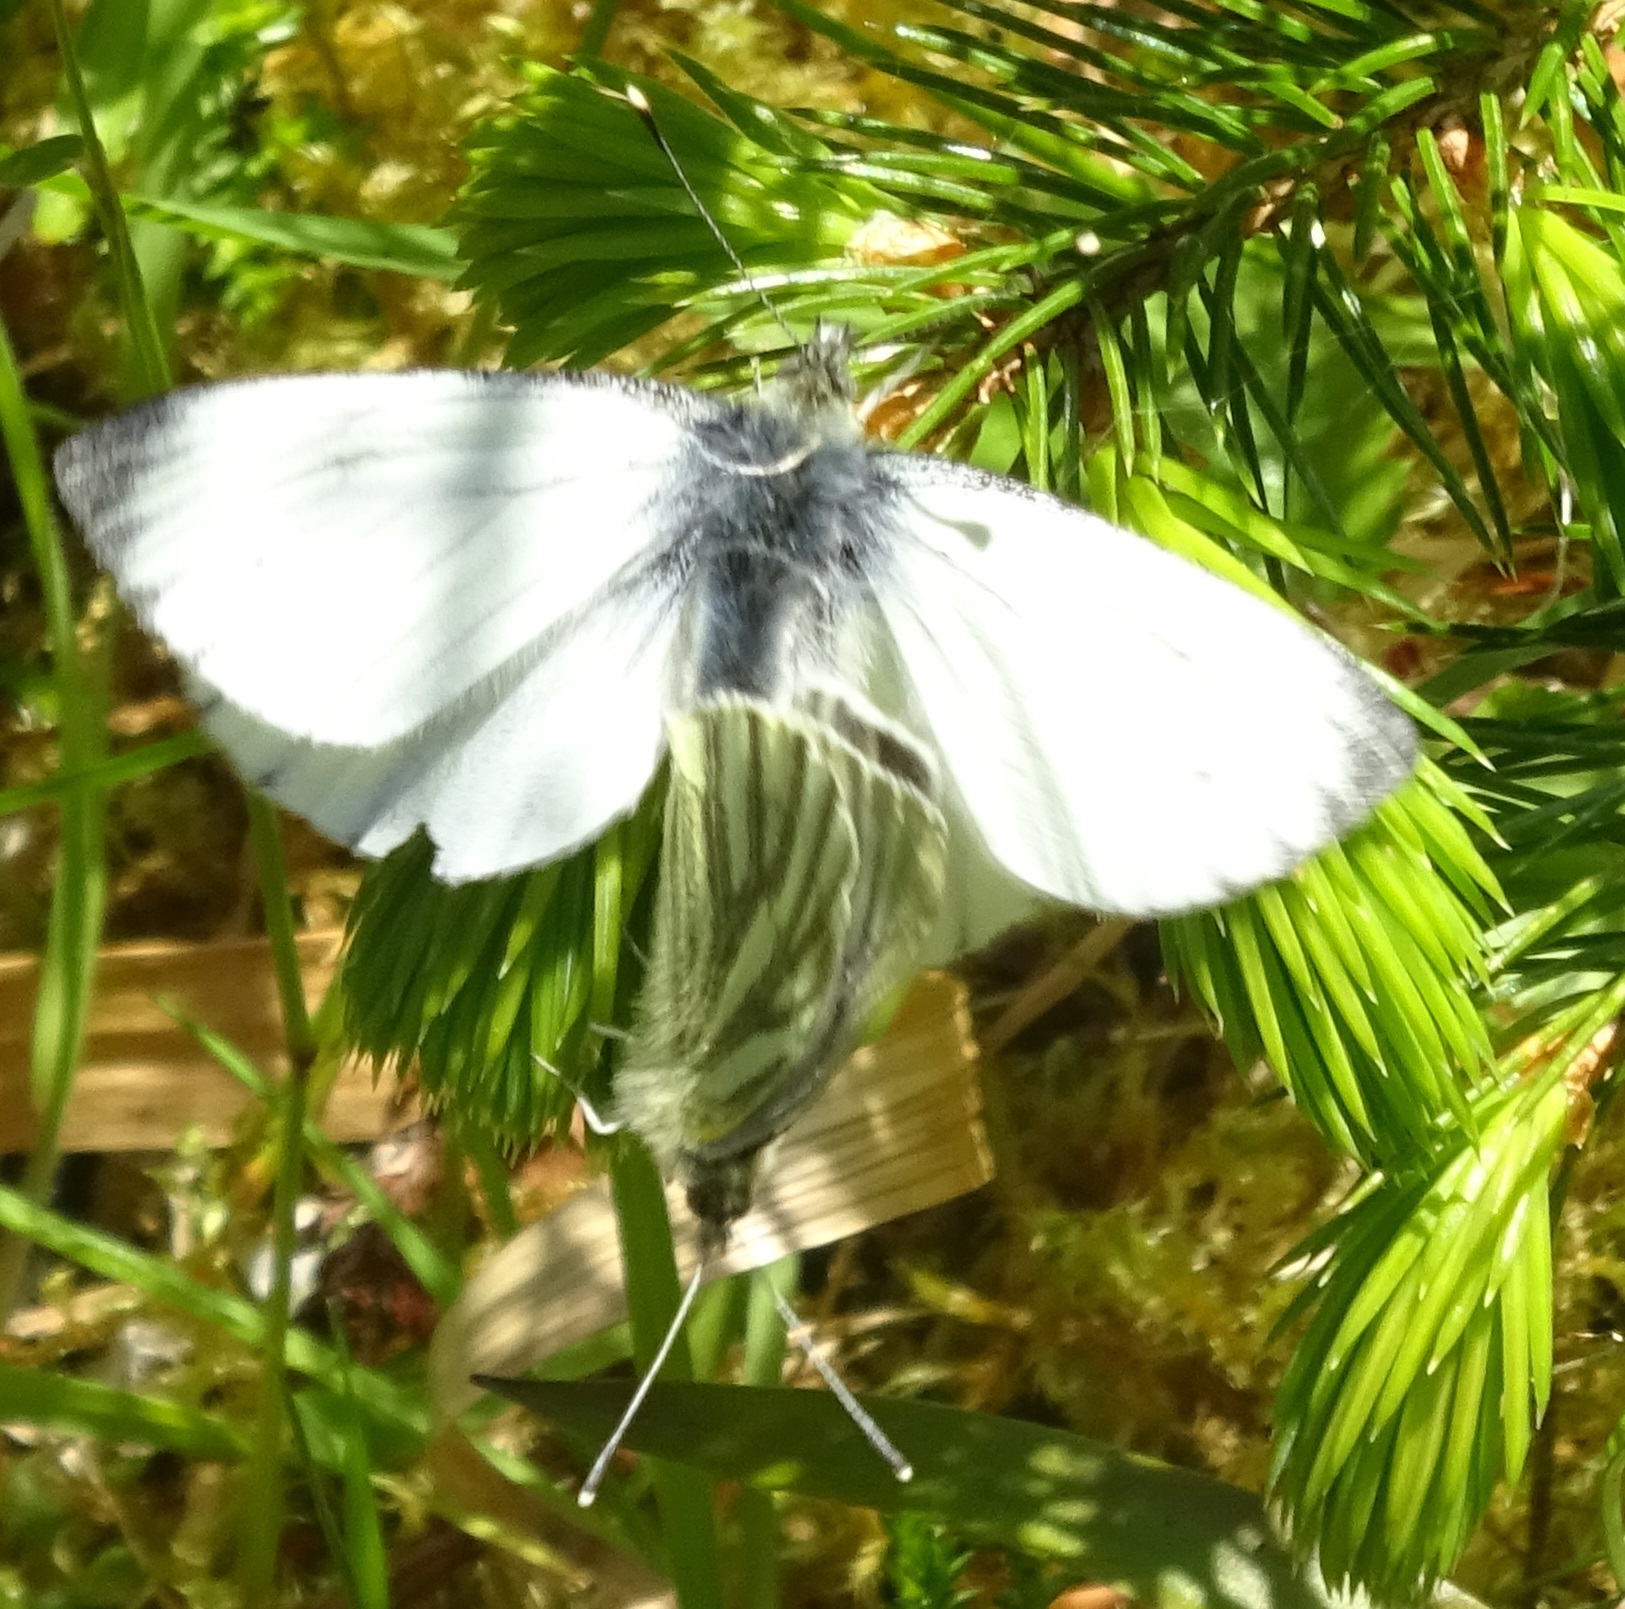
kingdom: Animalia
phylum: Arthropoda
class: Insecta
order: Lepidoptera
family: Pieridae
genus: Pieris
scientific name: Pieris napi
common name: Green-veined white
